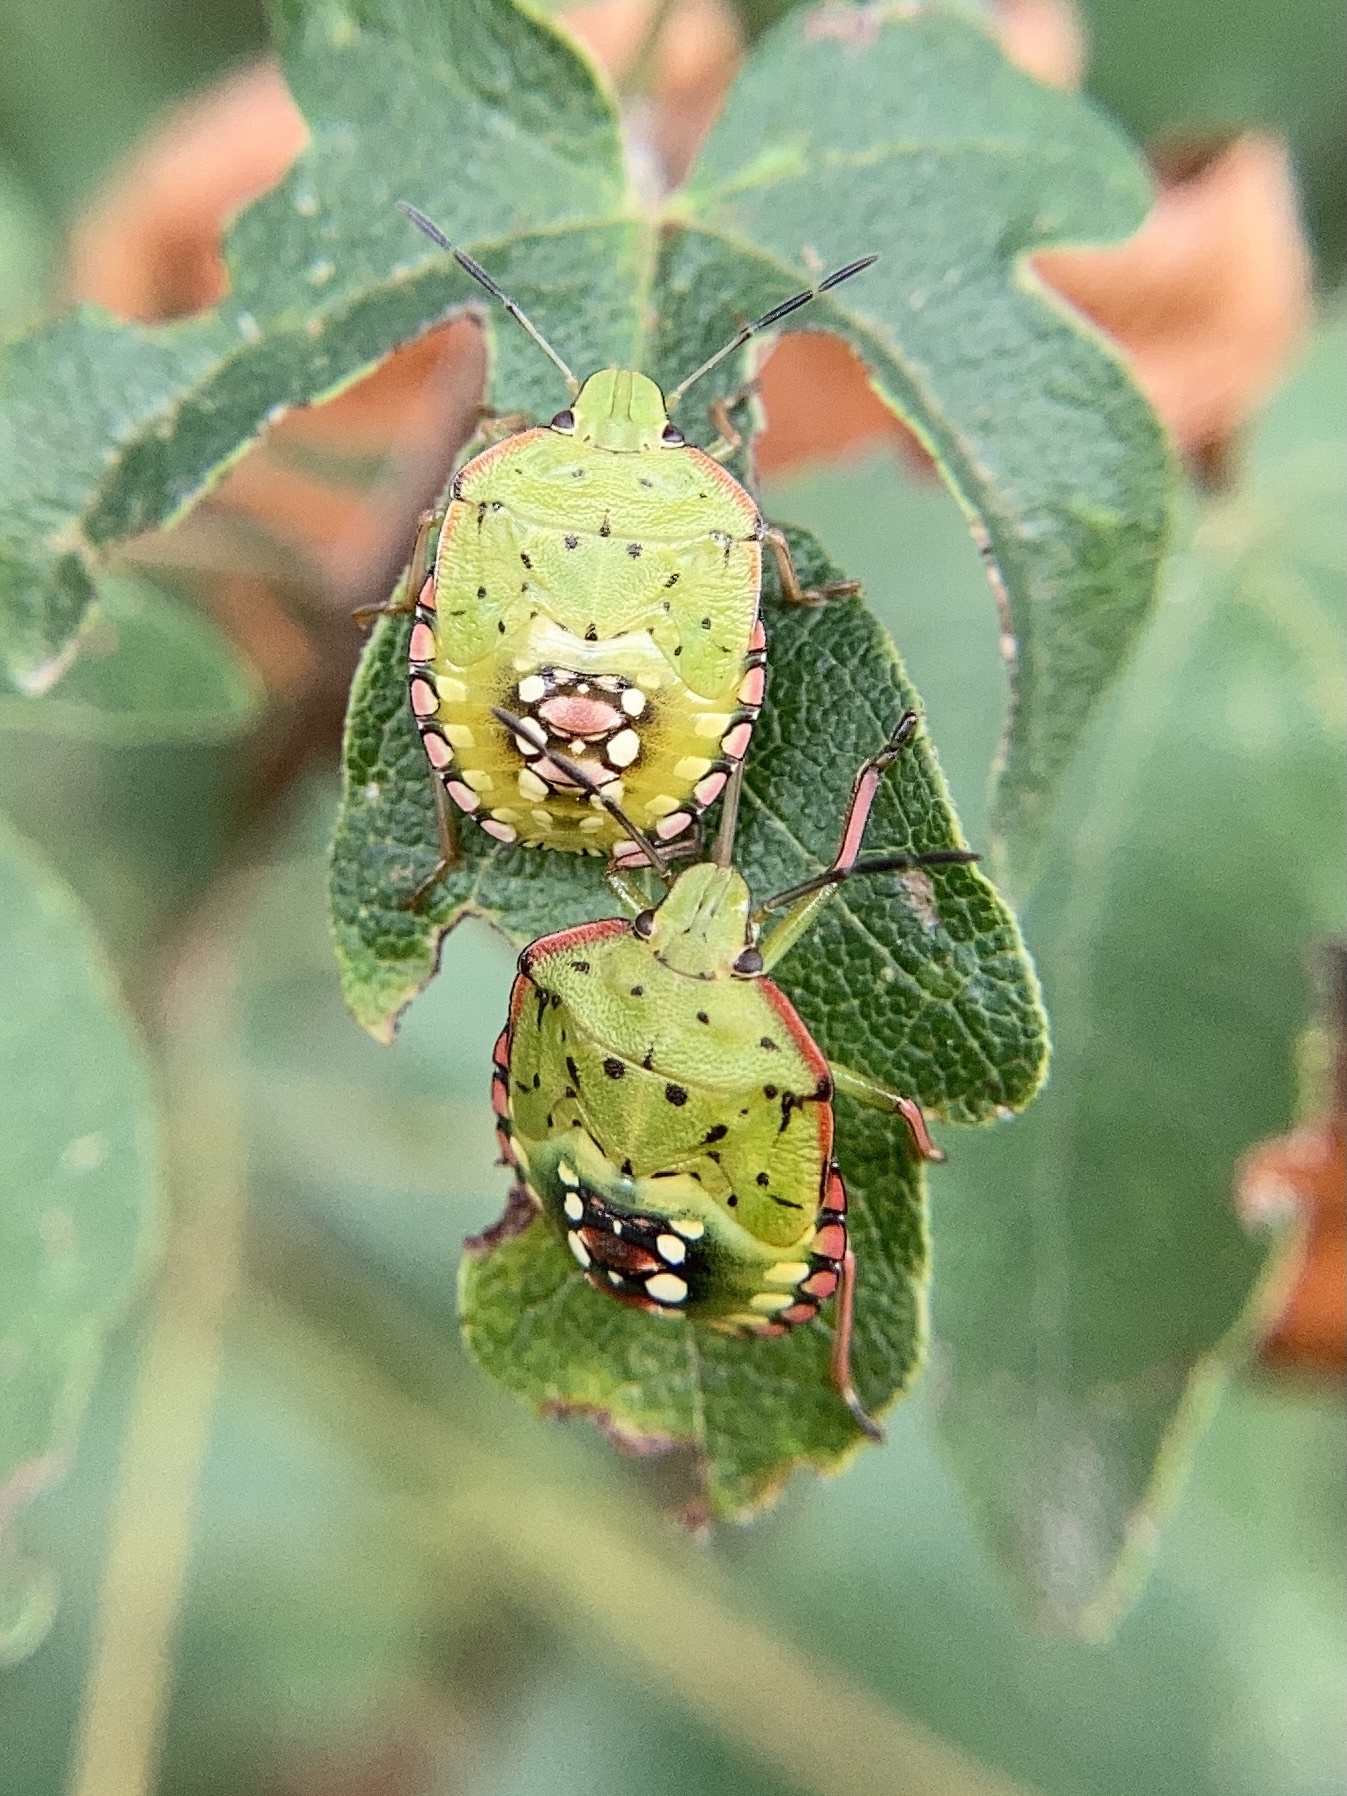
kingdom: Animalia
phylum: Arthropoda
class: Insecta
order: Hemiptera
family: Pentatomidae
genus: Nezara
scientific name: Nezara viridula
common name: Southern green stink bug
